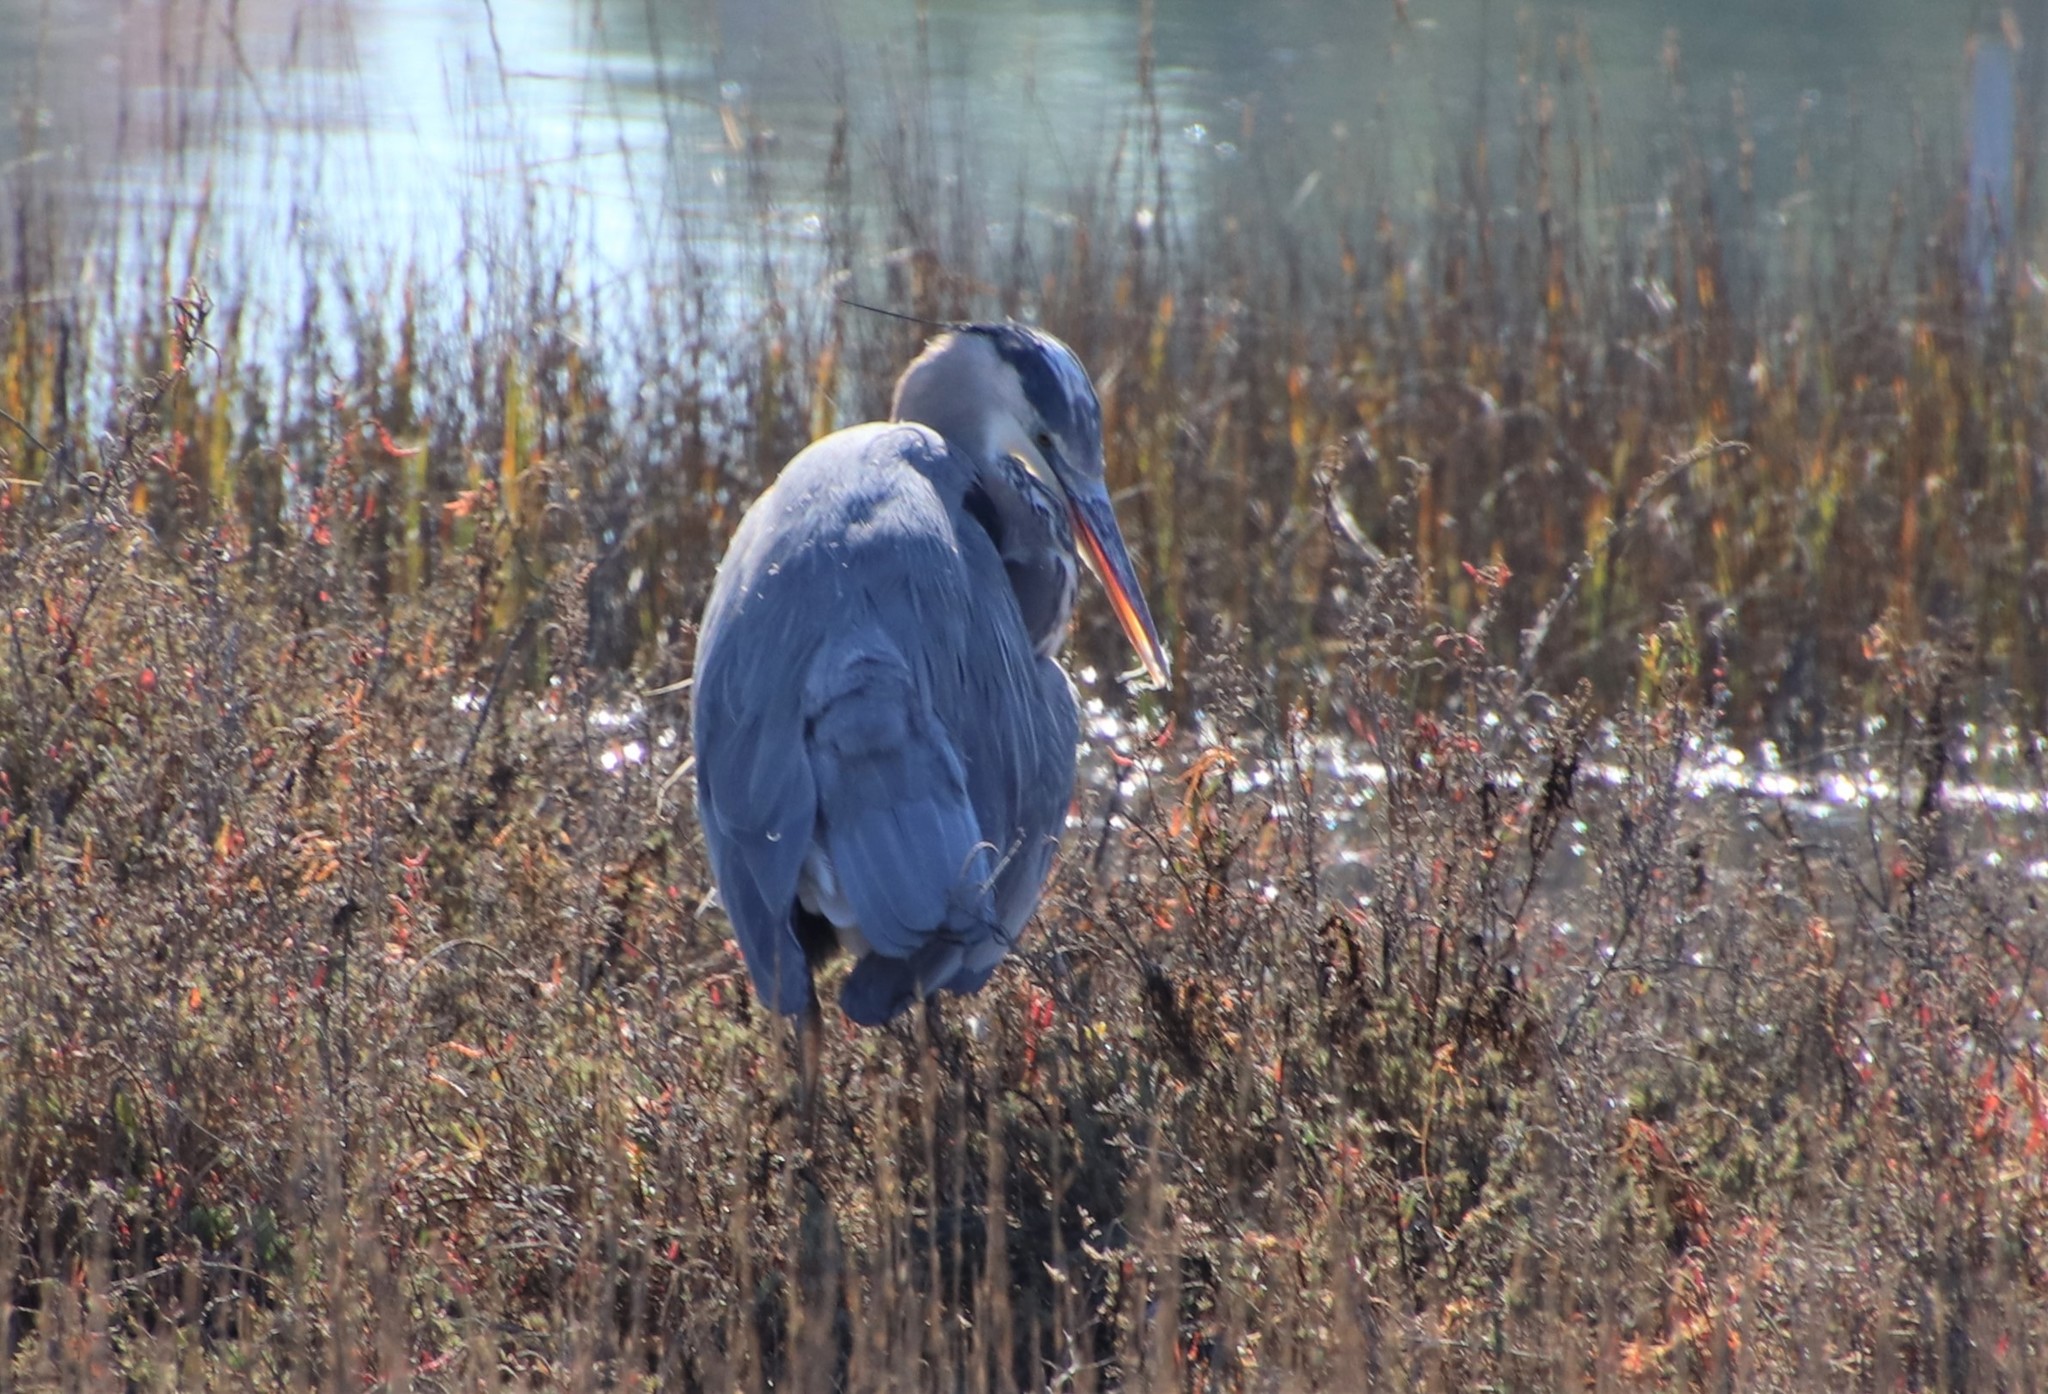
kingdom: Animalia
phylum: Chordata
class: Aves
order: Pelecaniformes
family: Ardeidae
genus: Ardea
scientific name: Ardea herodias
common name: Great blue heron
